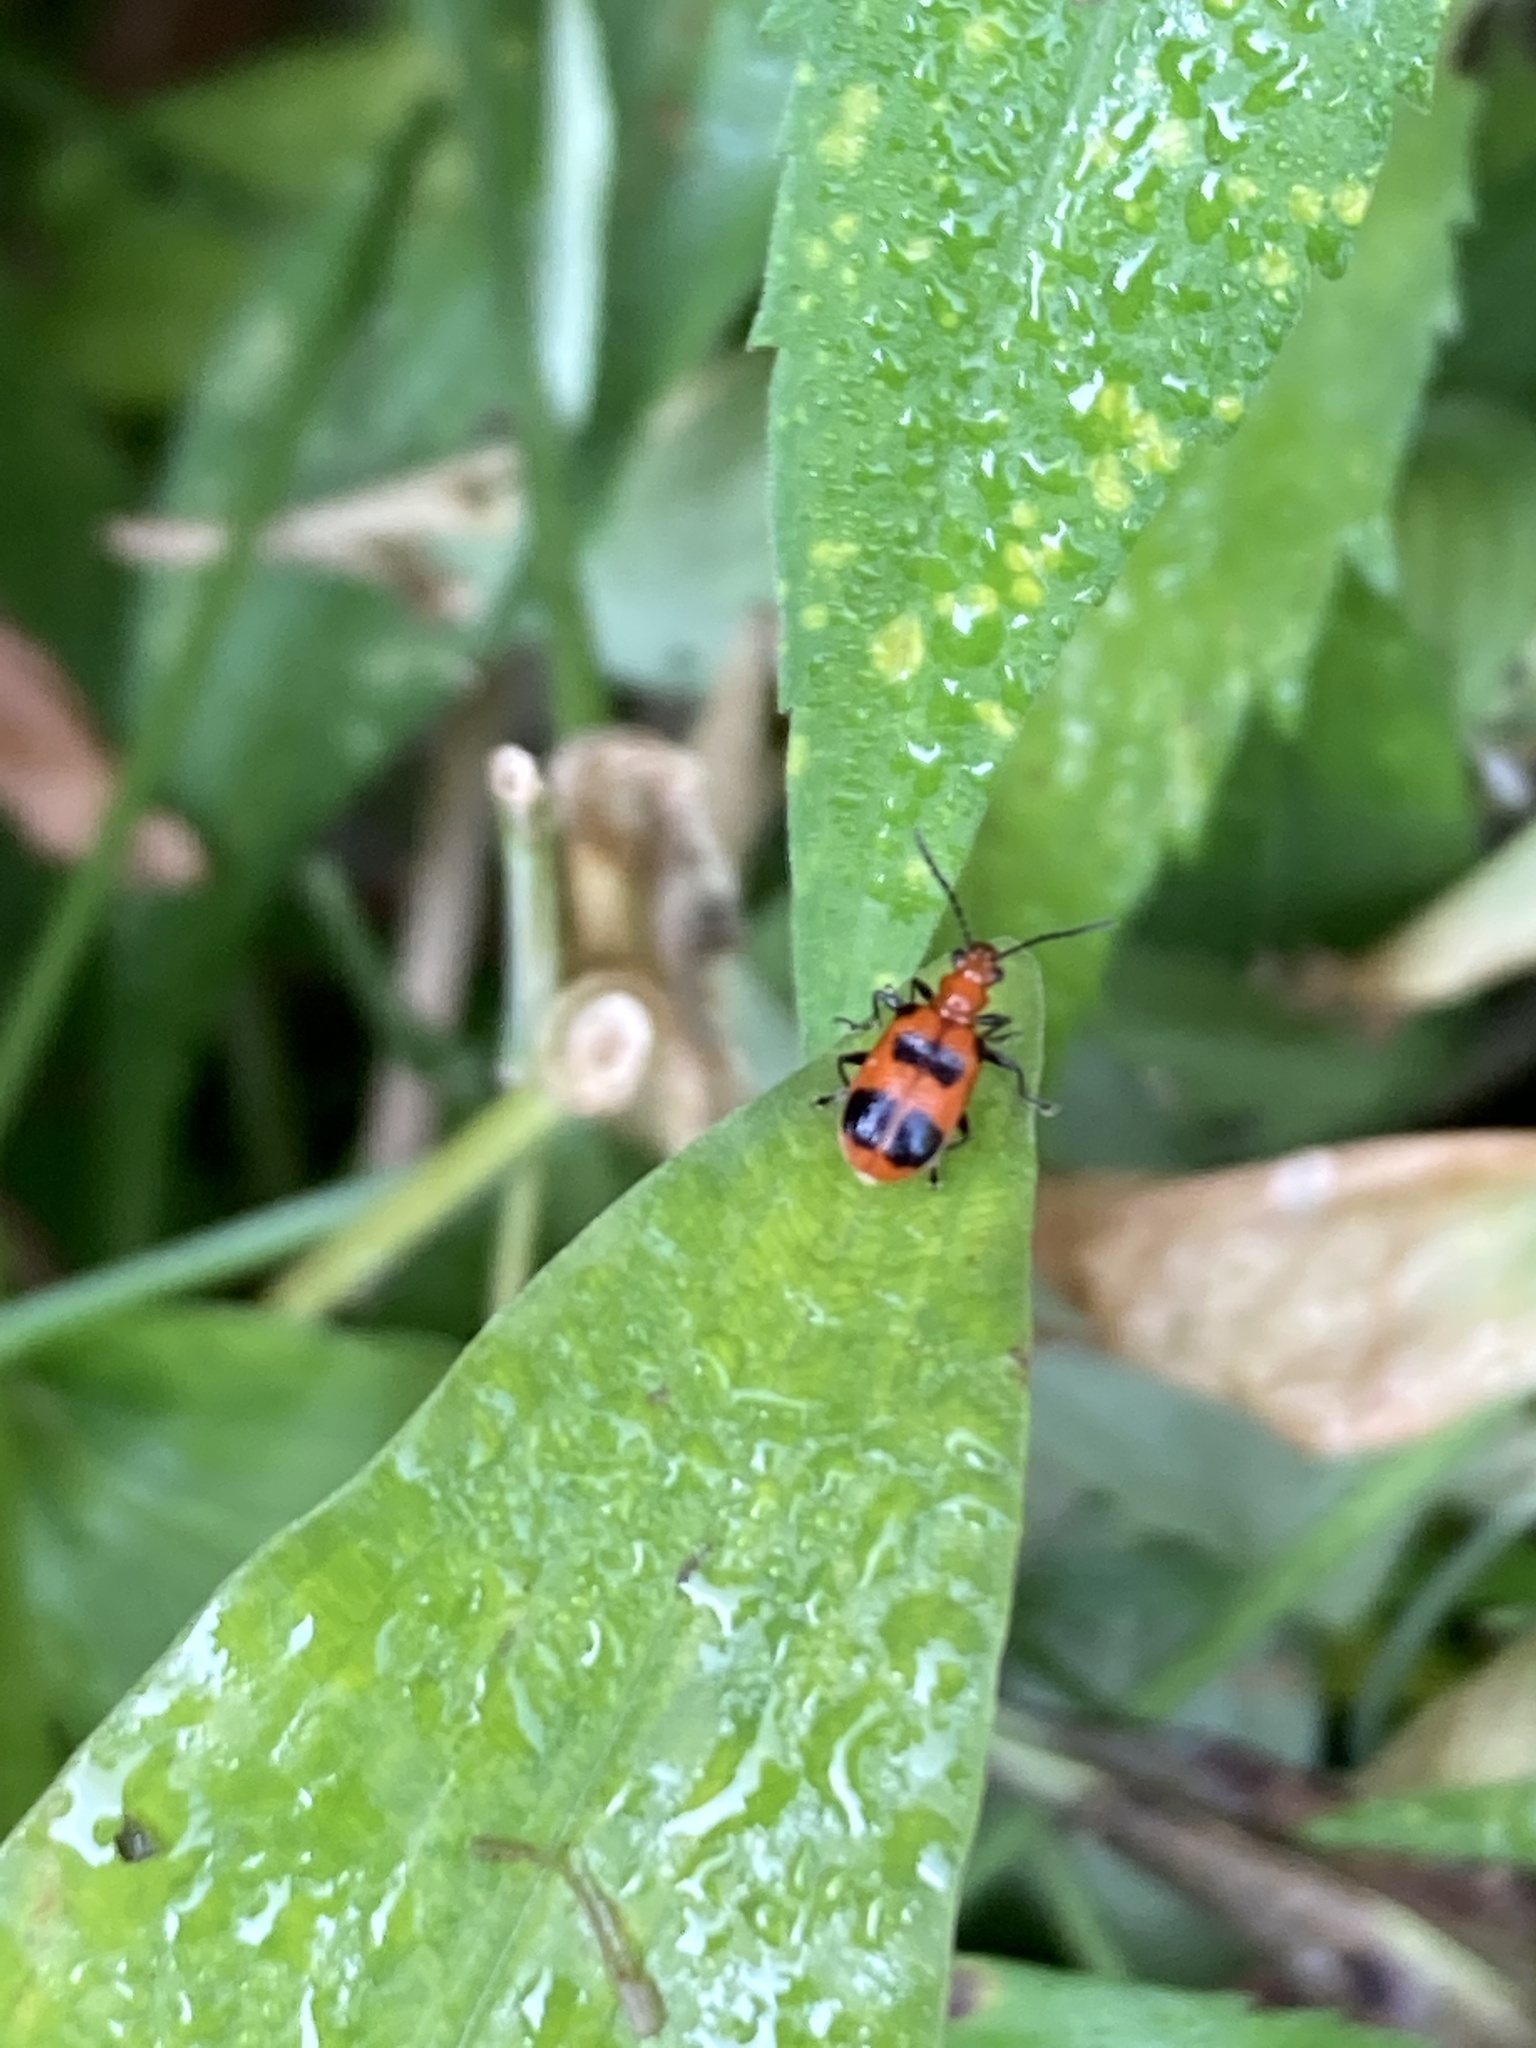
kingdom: Animalia
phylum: Arthropoda
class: Insecta
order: Coleoptera
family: Chrysomelidae
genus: Neolema
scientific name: Neolema sexpunctata
